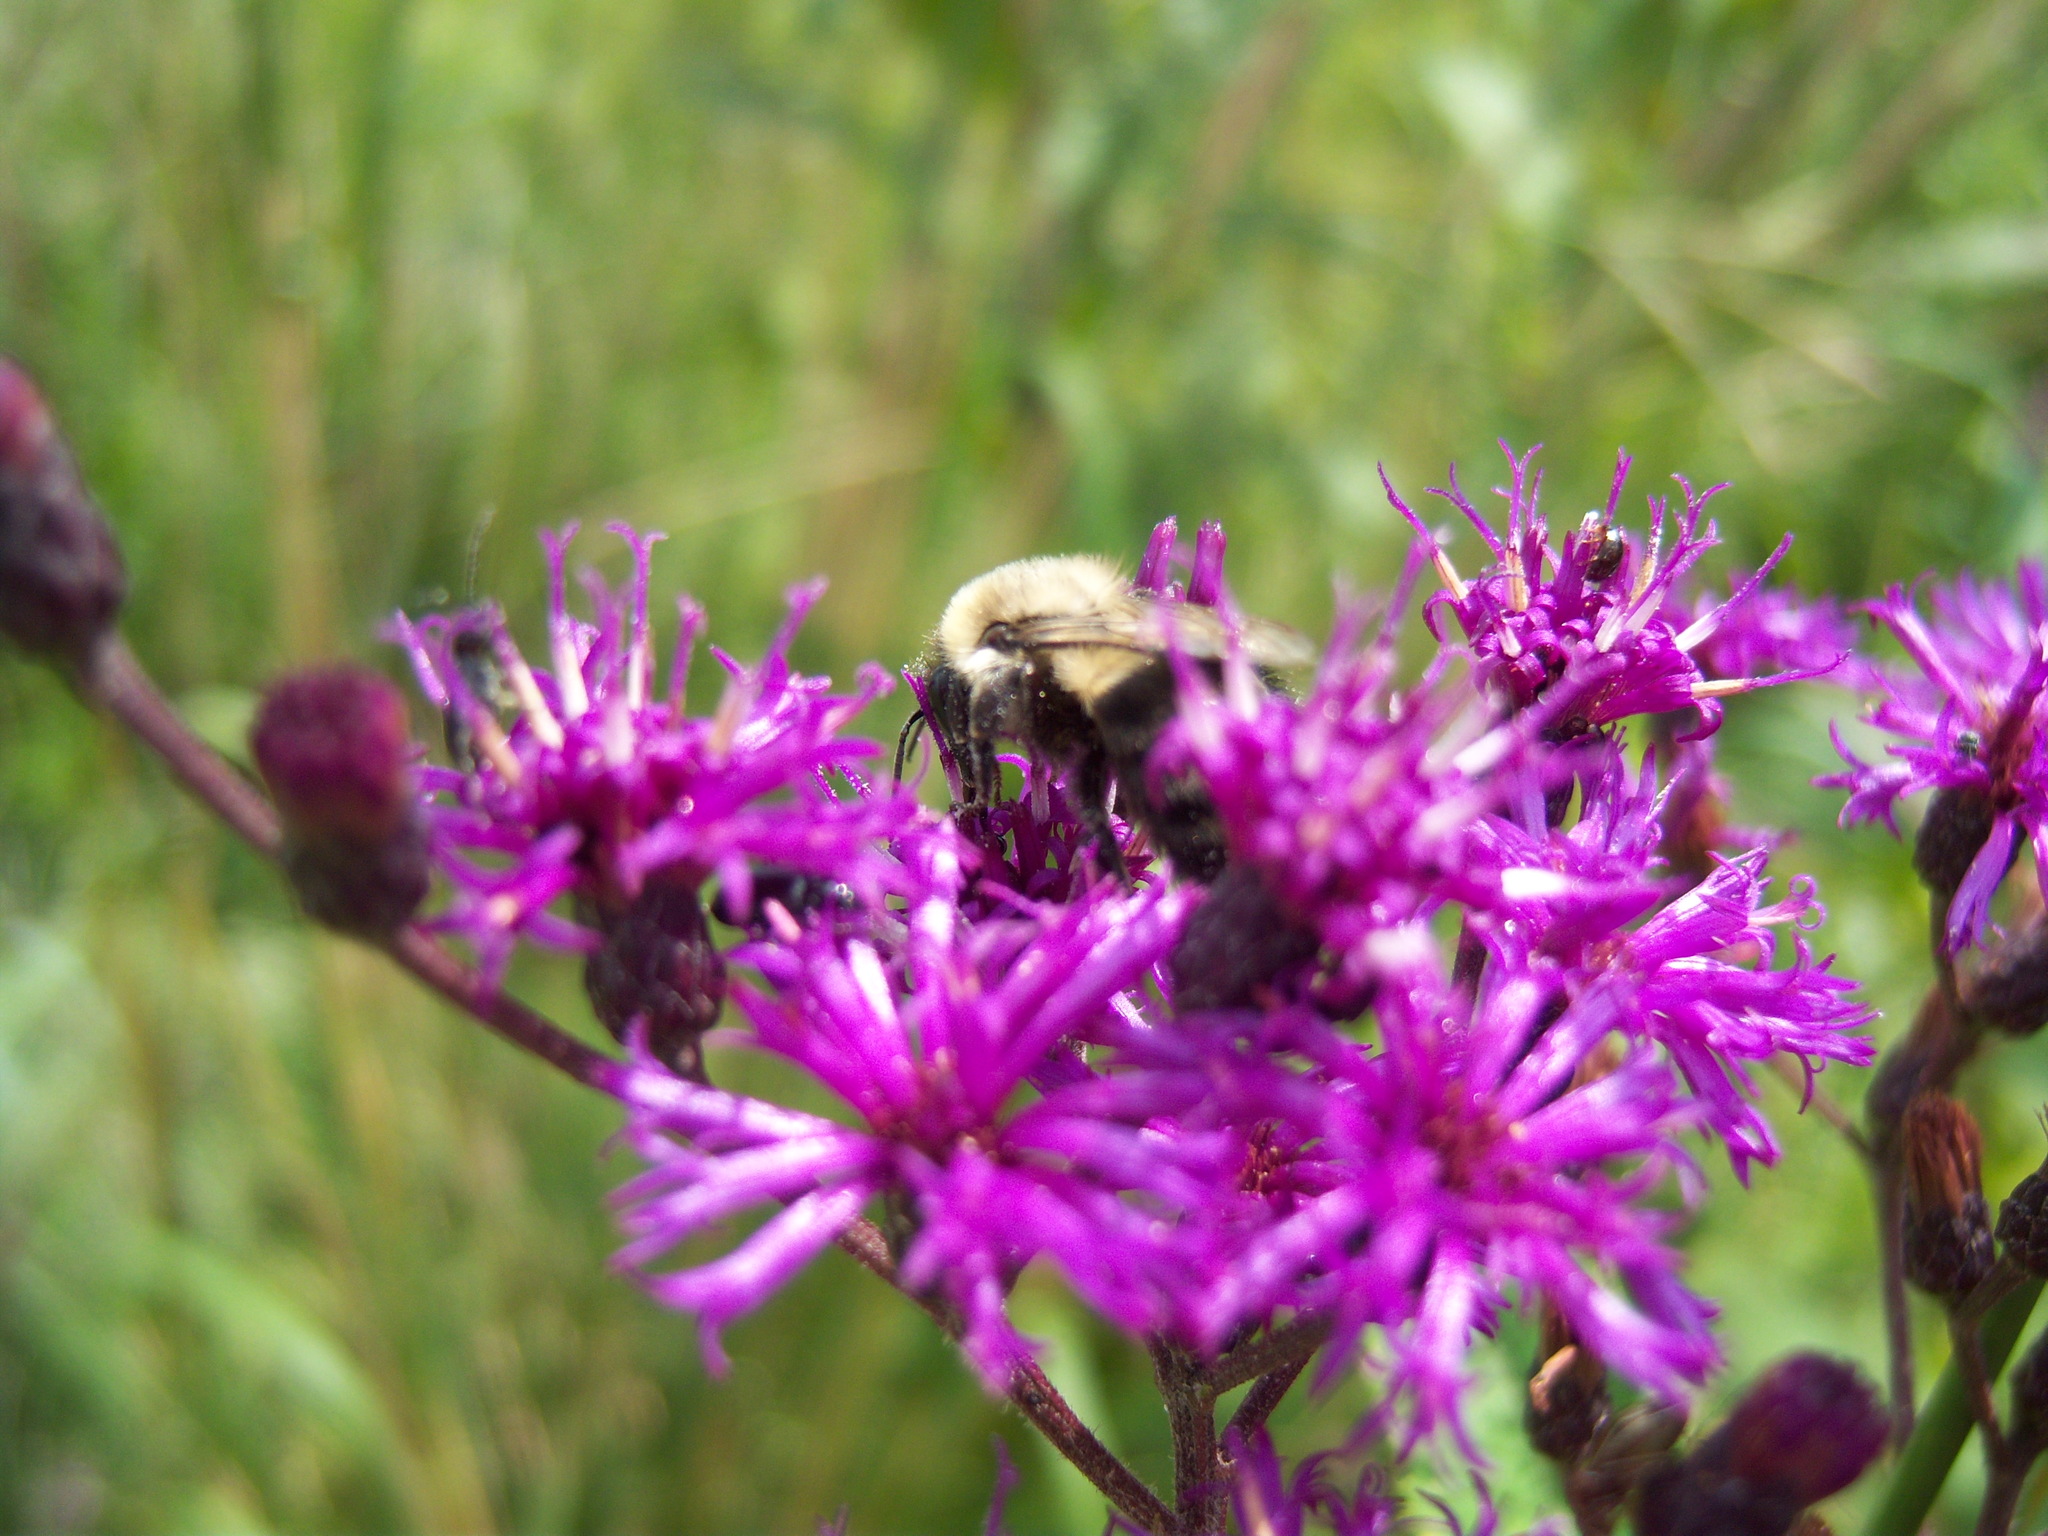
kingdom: Animalia
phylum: Arthropoda
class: Insecta
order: Hymenoptera
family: Apidae
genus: Bombus
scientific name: Bombus impatiens
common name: Common eastern bumble bee
